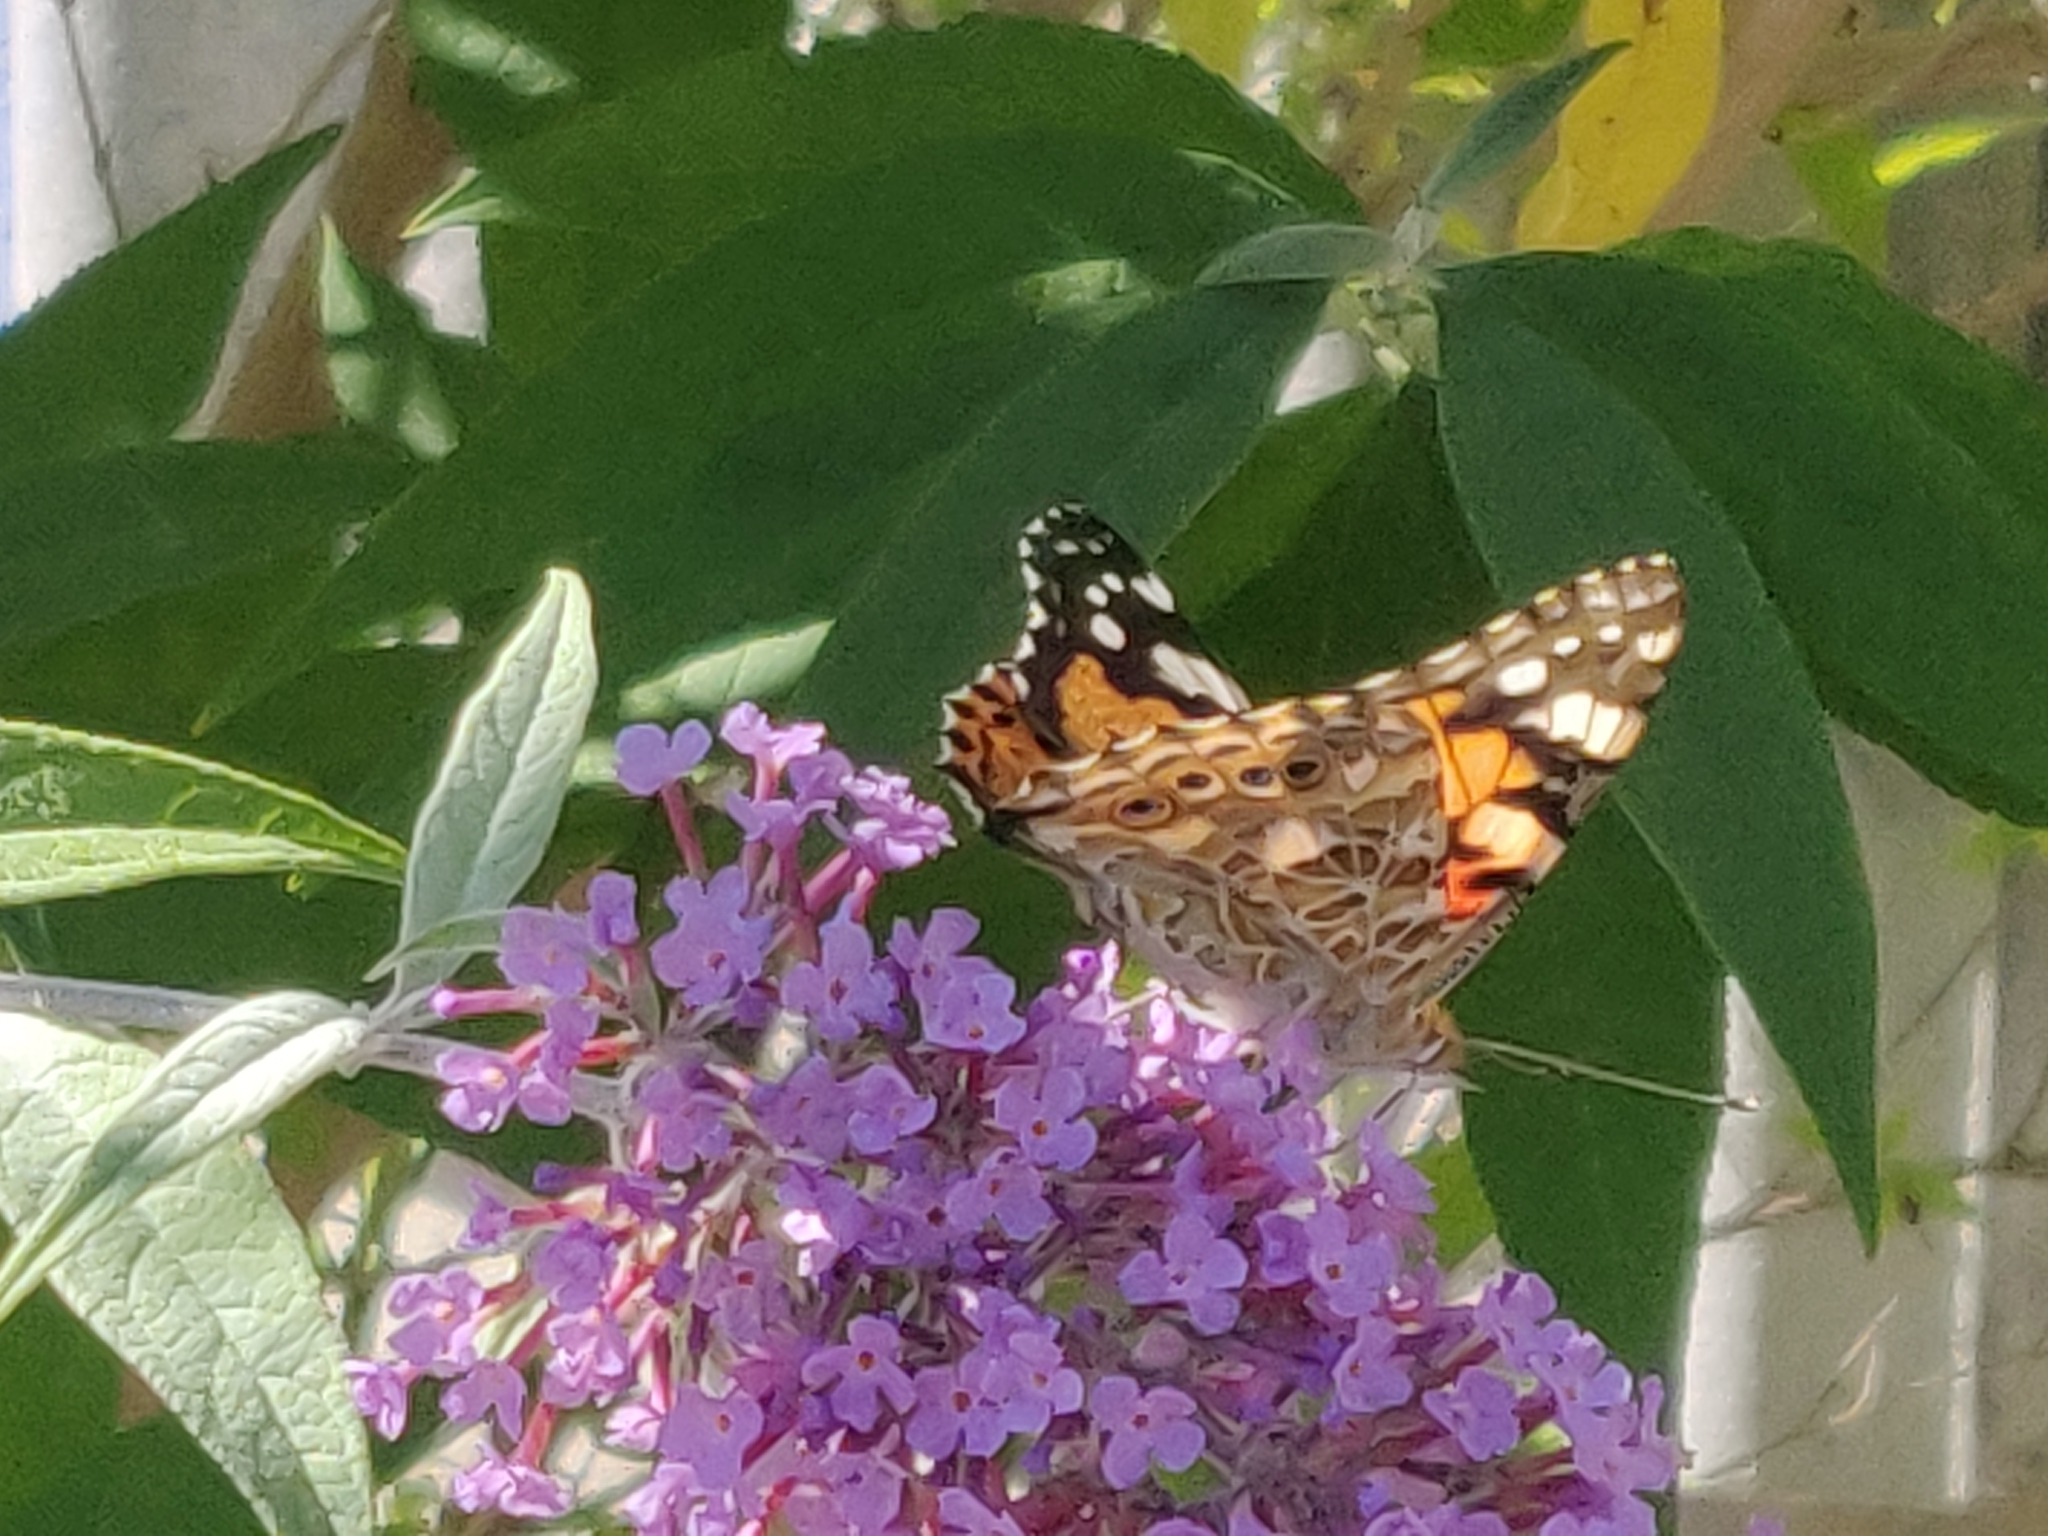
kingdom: Animalia
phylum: Arthropoda
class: Insecta
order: Lepidoptera
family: Nymphalidae
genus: Vanessa
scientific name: Vanessa cardui
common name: Painted lady
